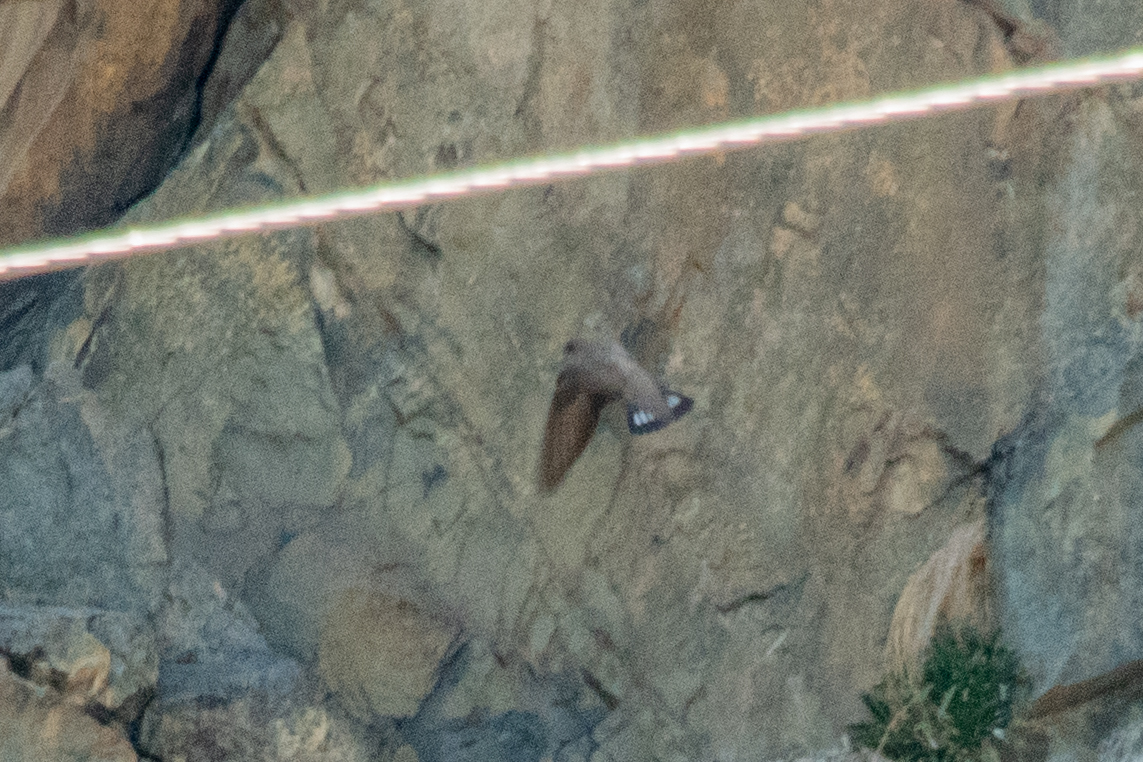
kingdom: Animalia
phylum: Chordata
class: Aves
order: Passeriformes
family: Hirundinidae
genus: Ptyonoprogne
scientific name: Ptyonoprogne rupestris
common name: Eurasian crag martin
